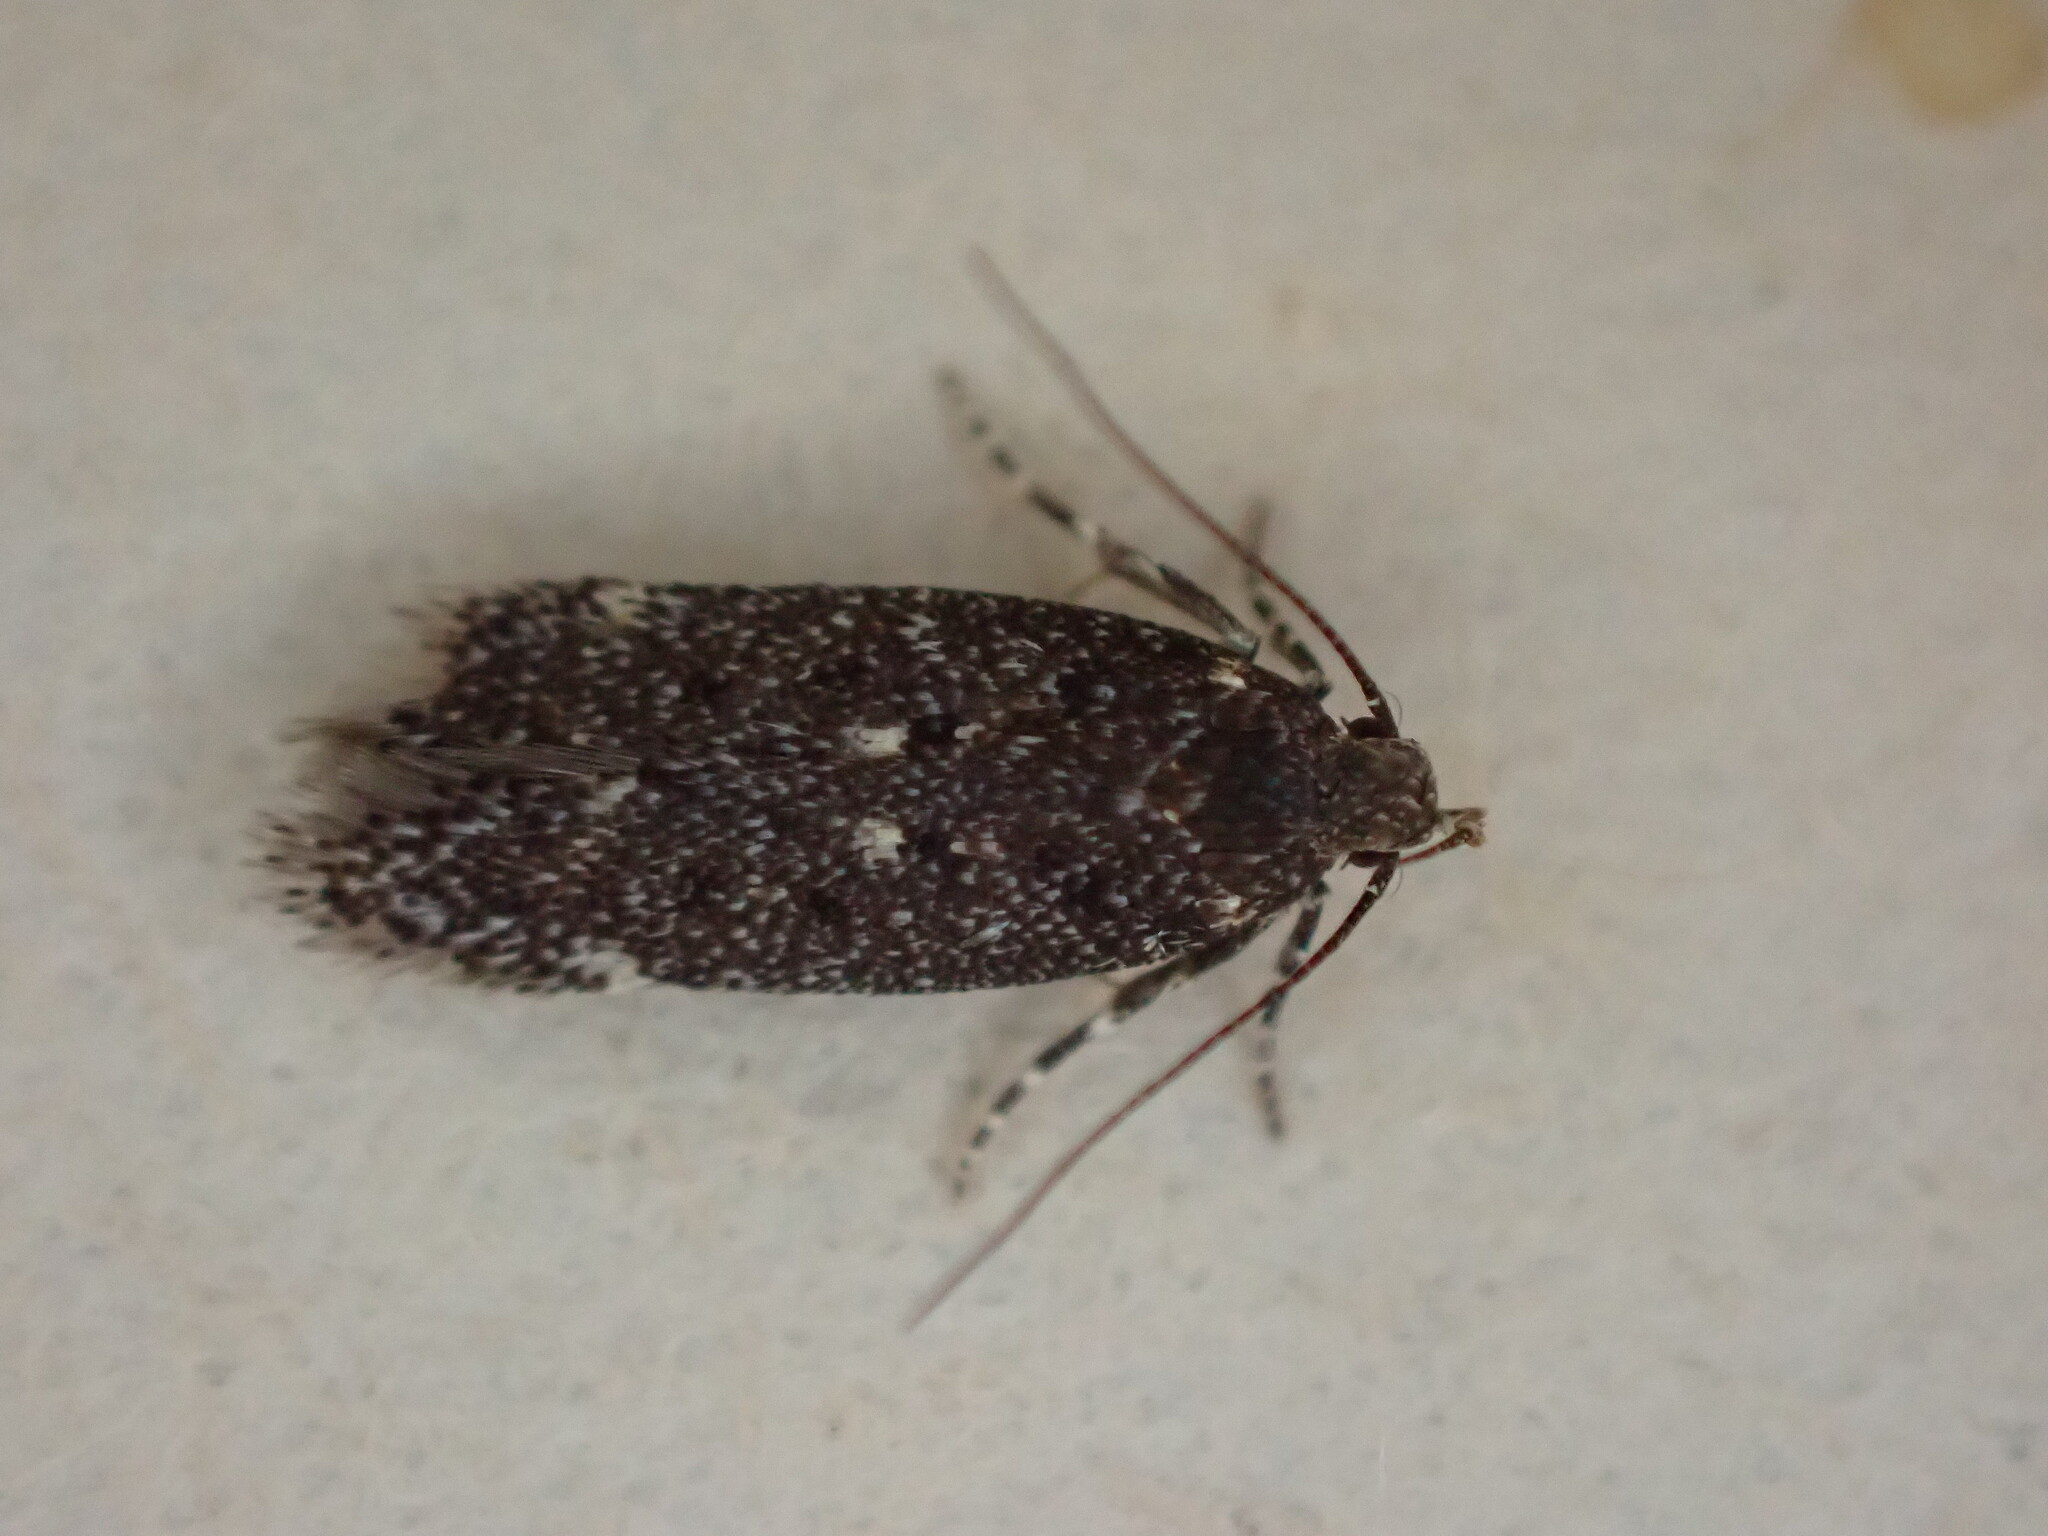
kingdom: Animalia
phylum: Arthropoda
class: Insecta
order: Lepidoptera
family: Gelechiidae
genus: Bryotropha
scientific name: Bryotropha affinis
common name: Dark groundling
